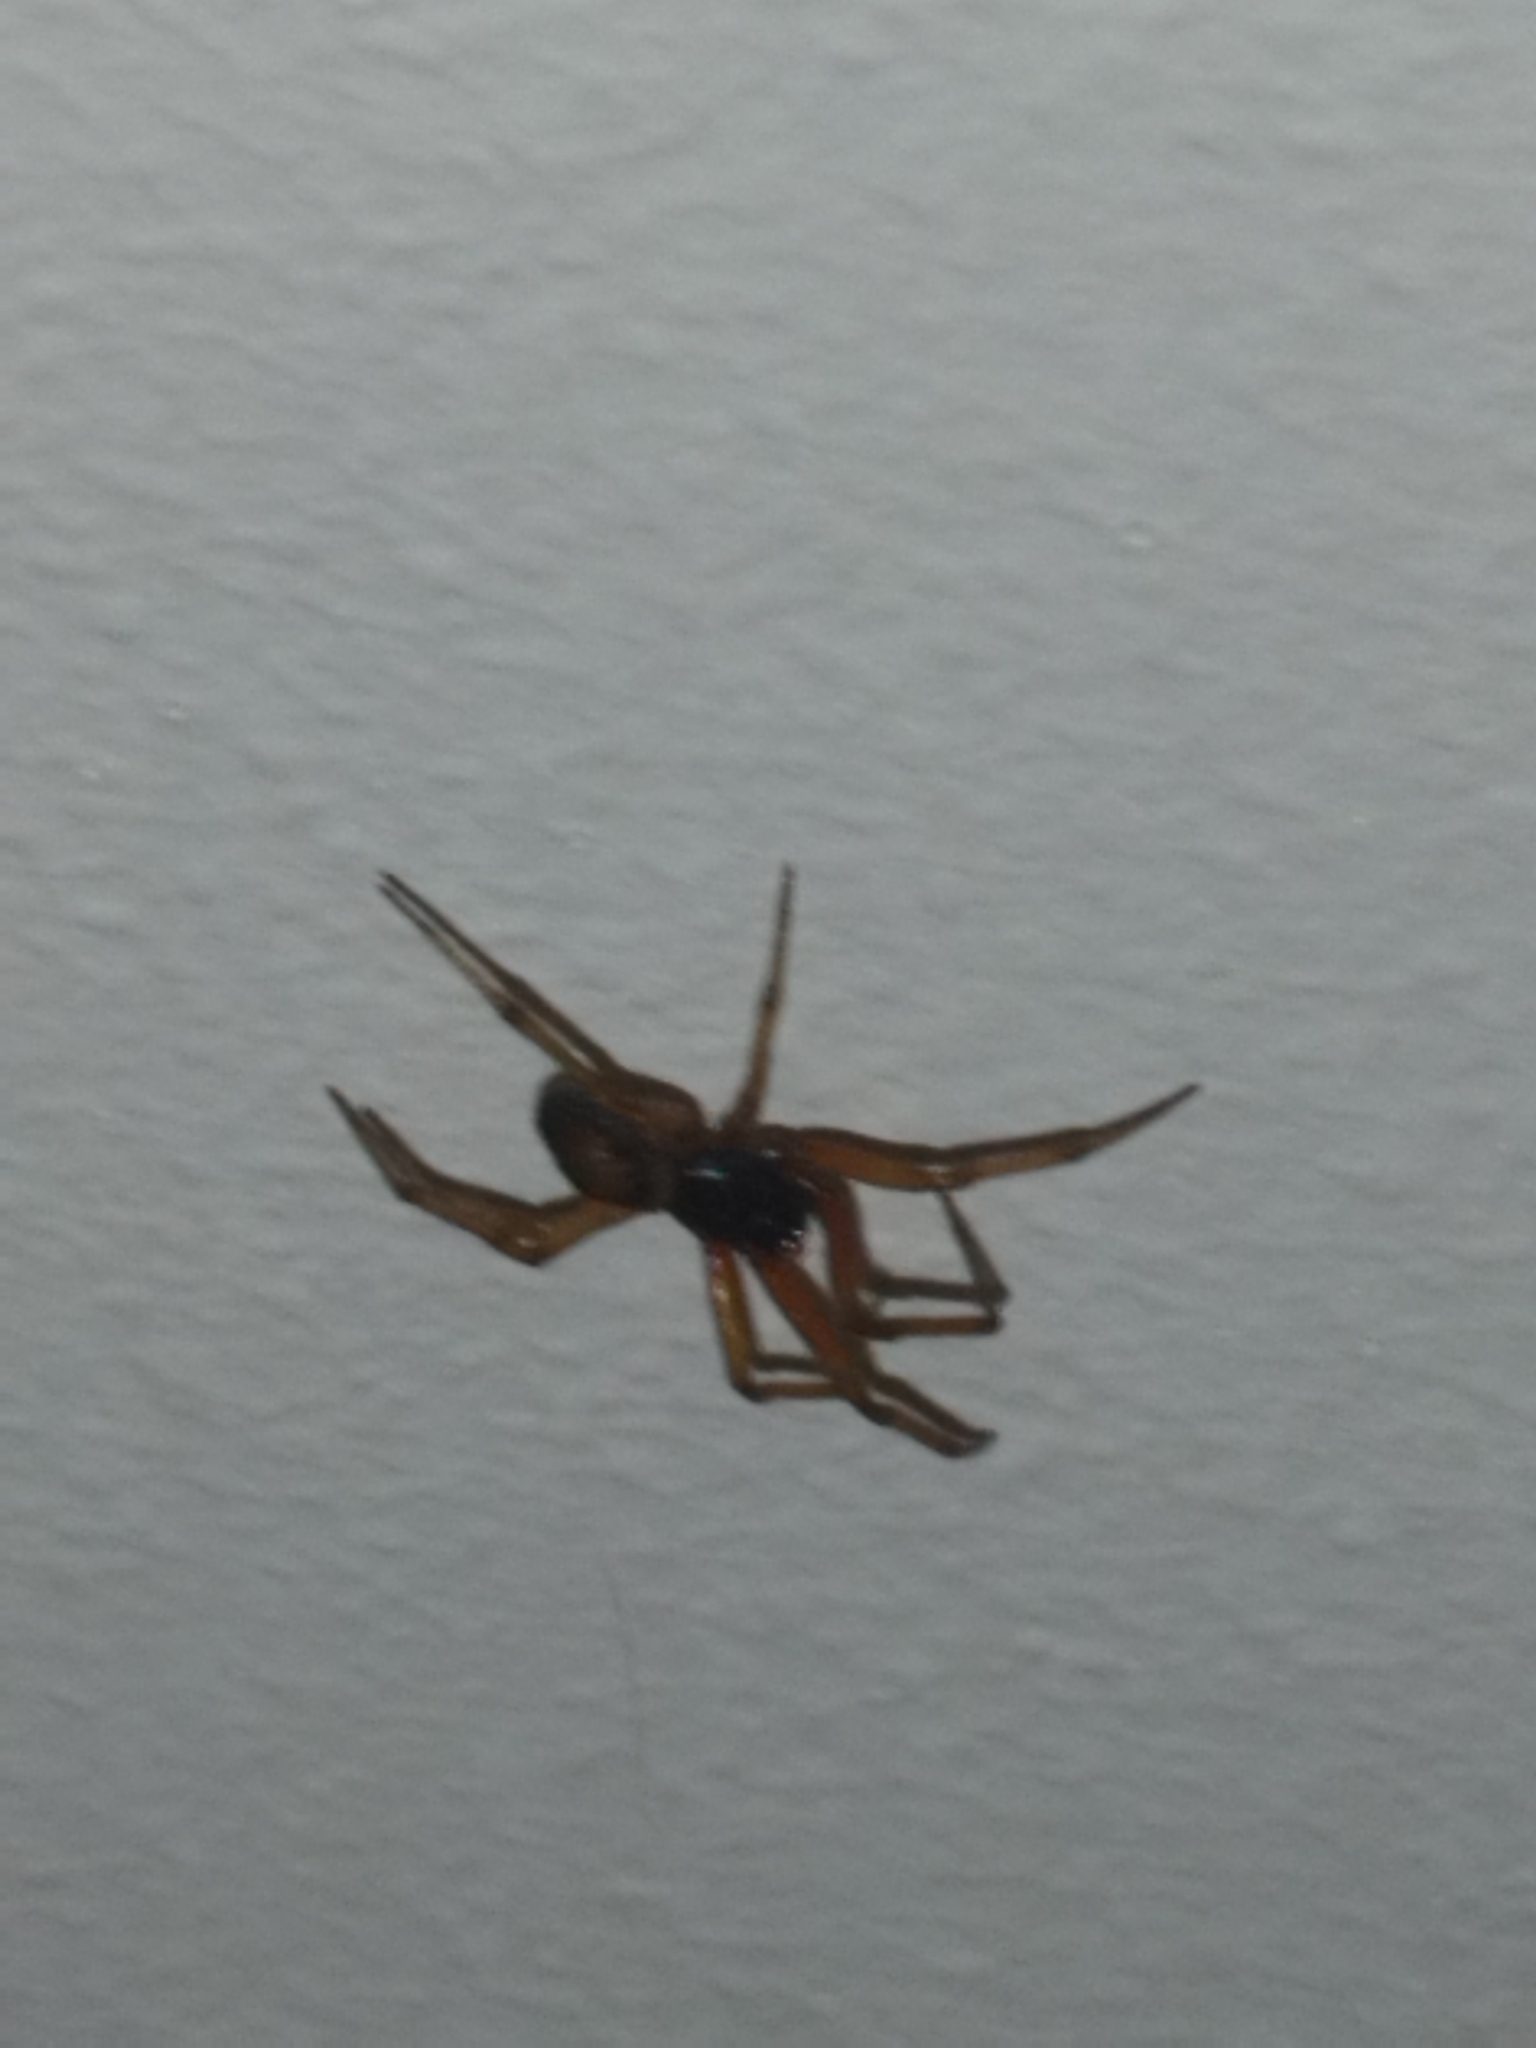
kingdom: Animalia
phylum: Arthropoda
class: Arachnida
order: Araneae
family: Theridiidae
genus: Steatoda
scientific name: Steatoda nobilis
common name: Cobweb weaver
